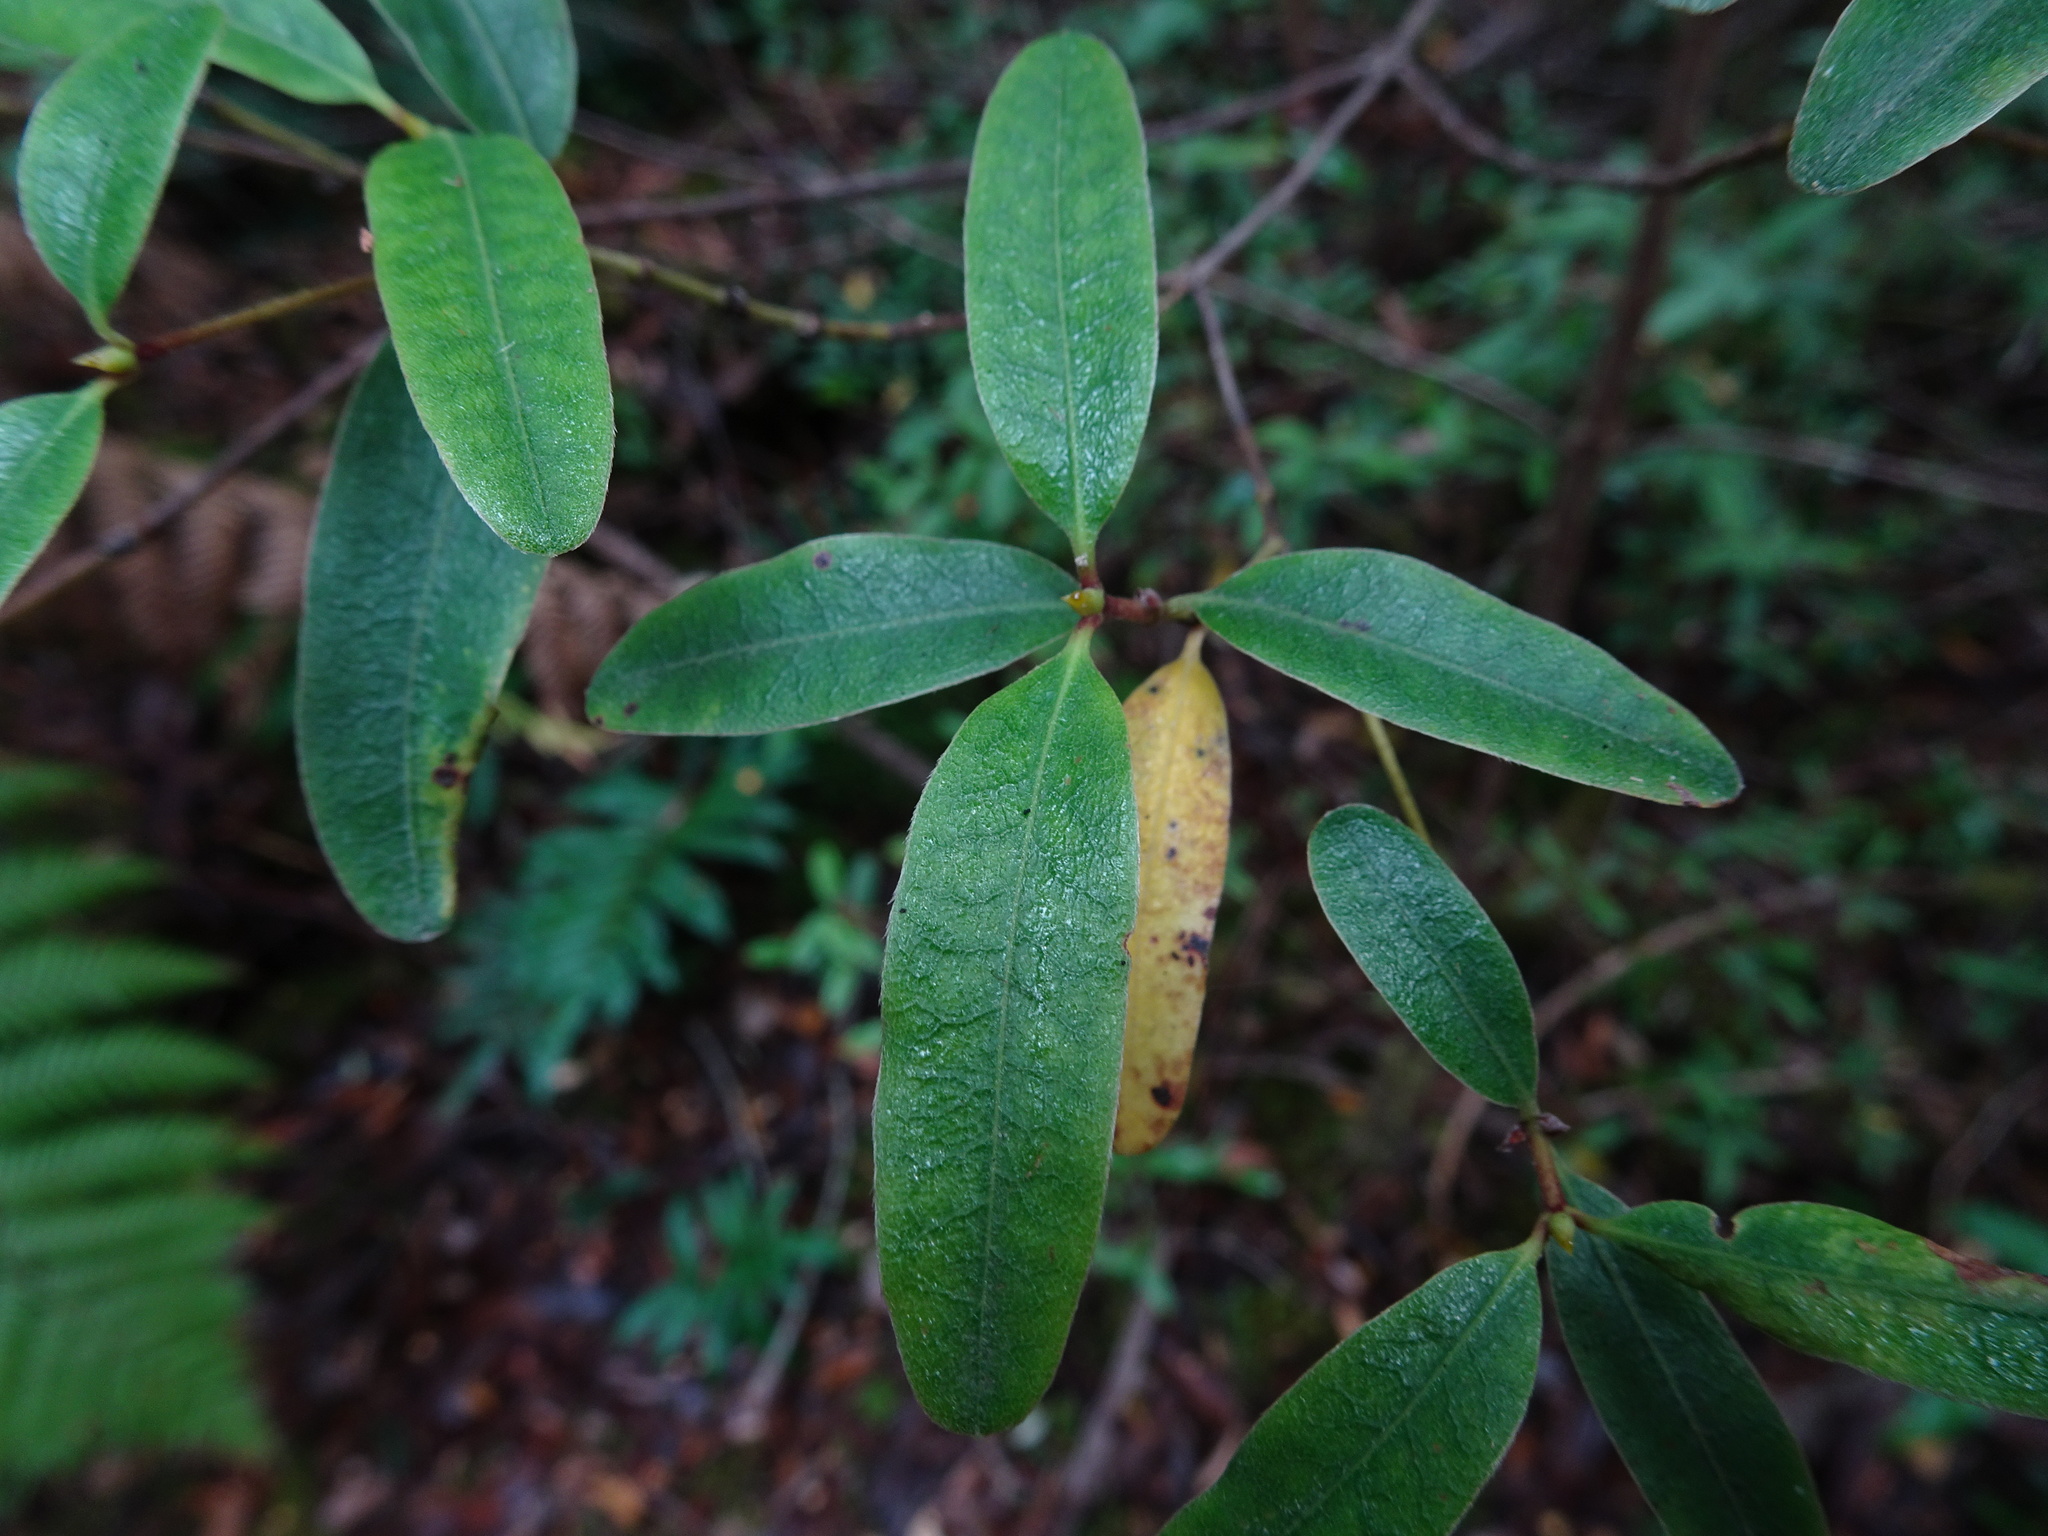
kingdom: Plantae
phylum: Tracheophyta
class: Magnoliopsida
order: Oxalidales
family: Cunoniaceae
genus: Eucryphia
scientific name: Eucryphia lucida
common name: Leatherwood
